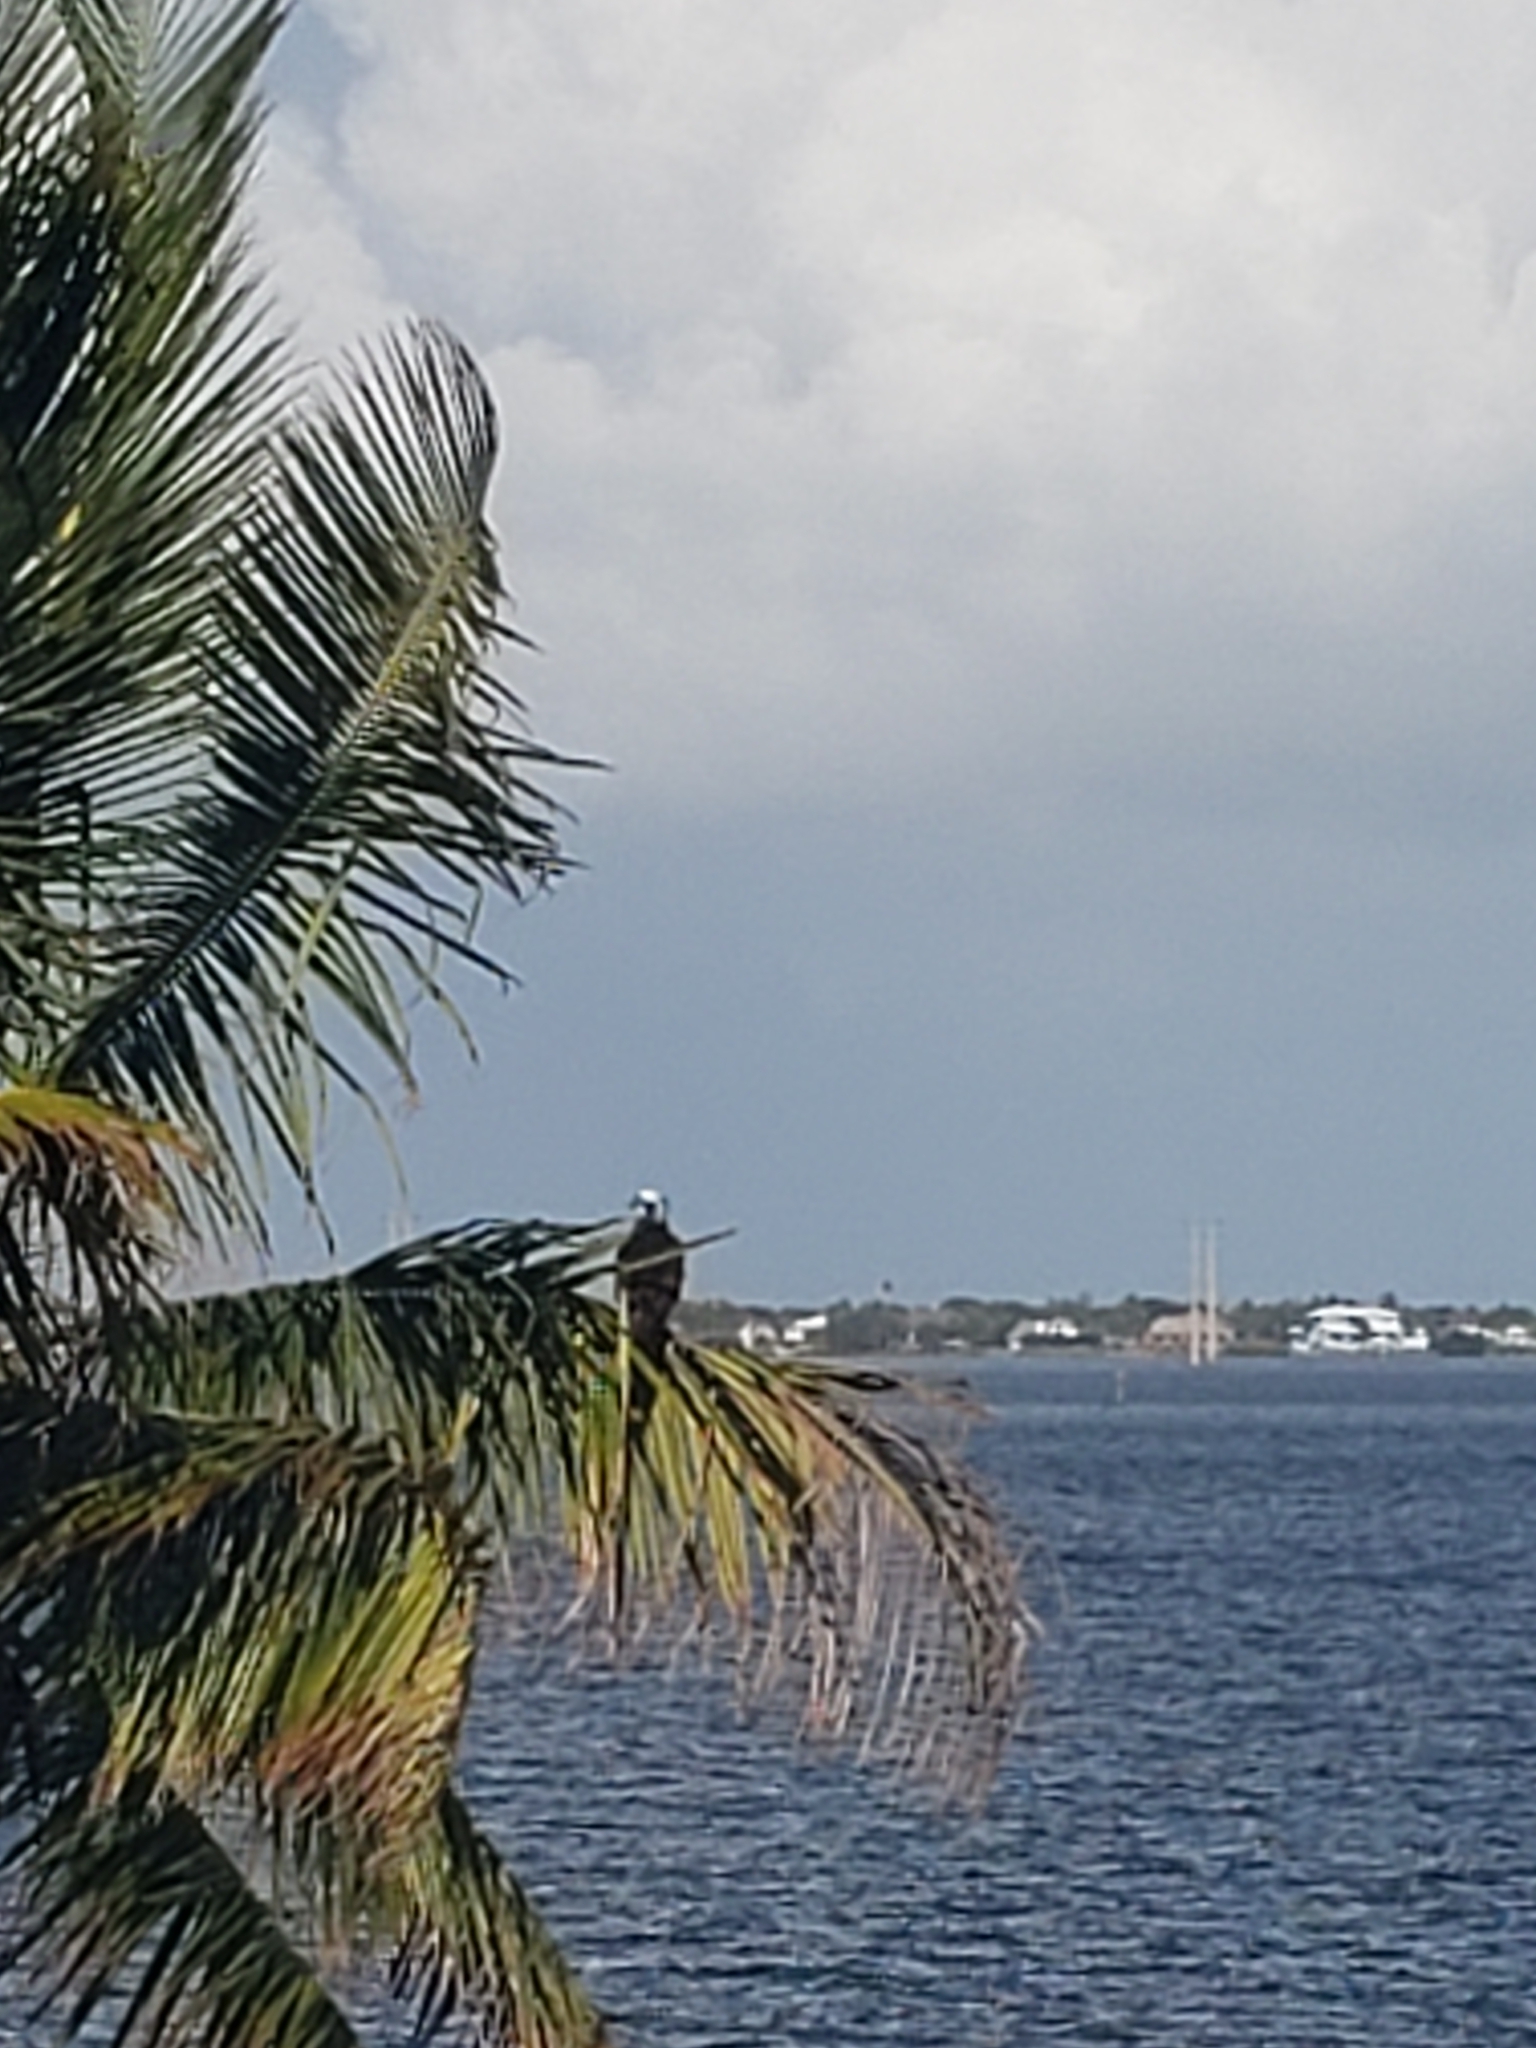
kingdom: Animalia
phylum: Chordata
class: Aves
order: Accipitriformes
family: Pandionidae
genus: Pandion
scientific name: Pandion haliaetus
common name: Osprey
